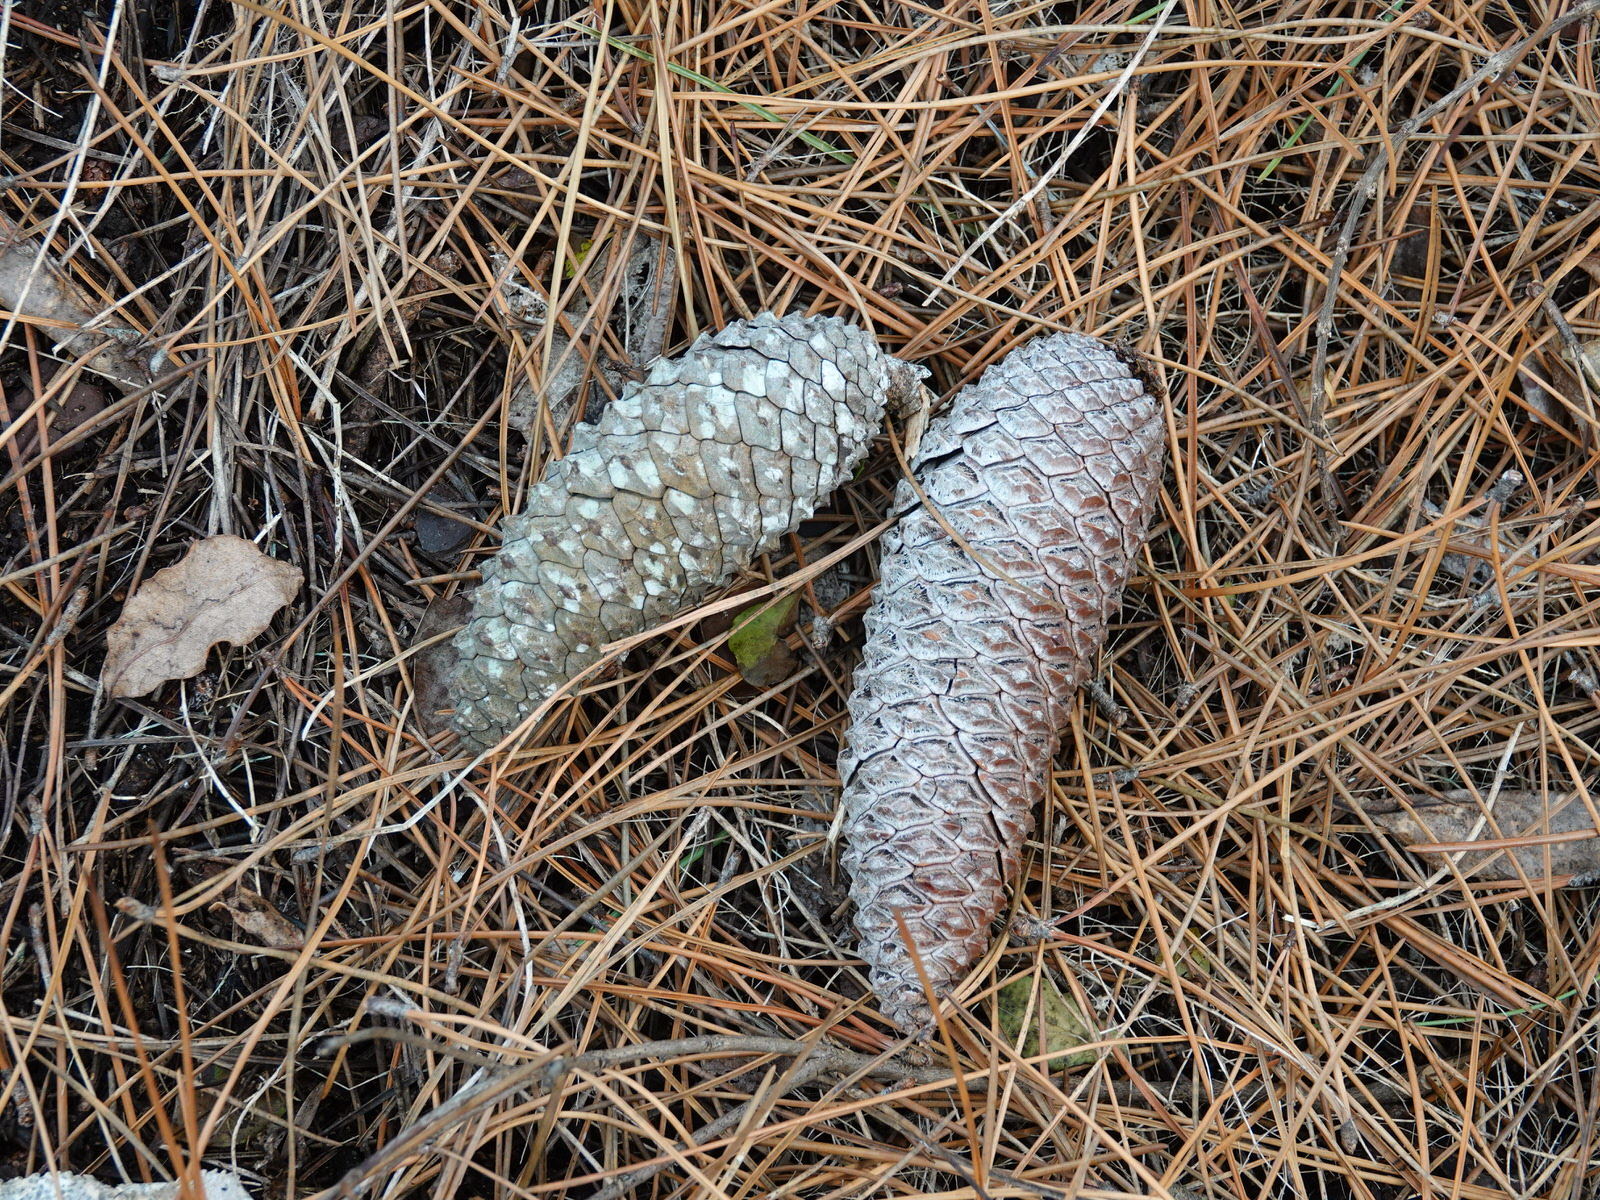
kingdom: Plantae
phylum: Tracheophyta
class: Pinopsida
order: Pinales
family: Pinaceae
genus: Pinus
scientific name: Pinus pinaster
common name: Maritime pine
